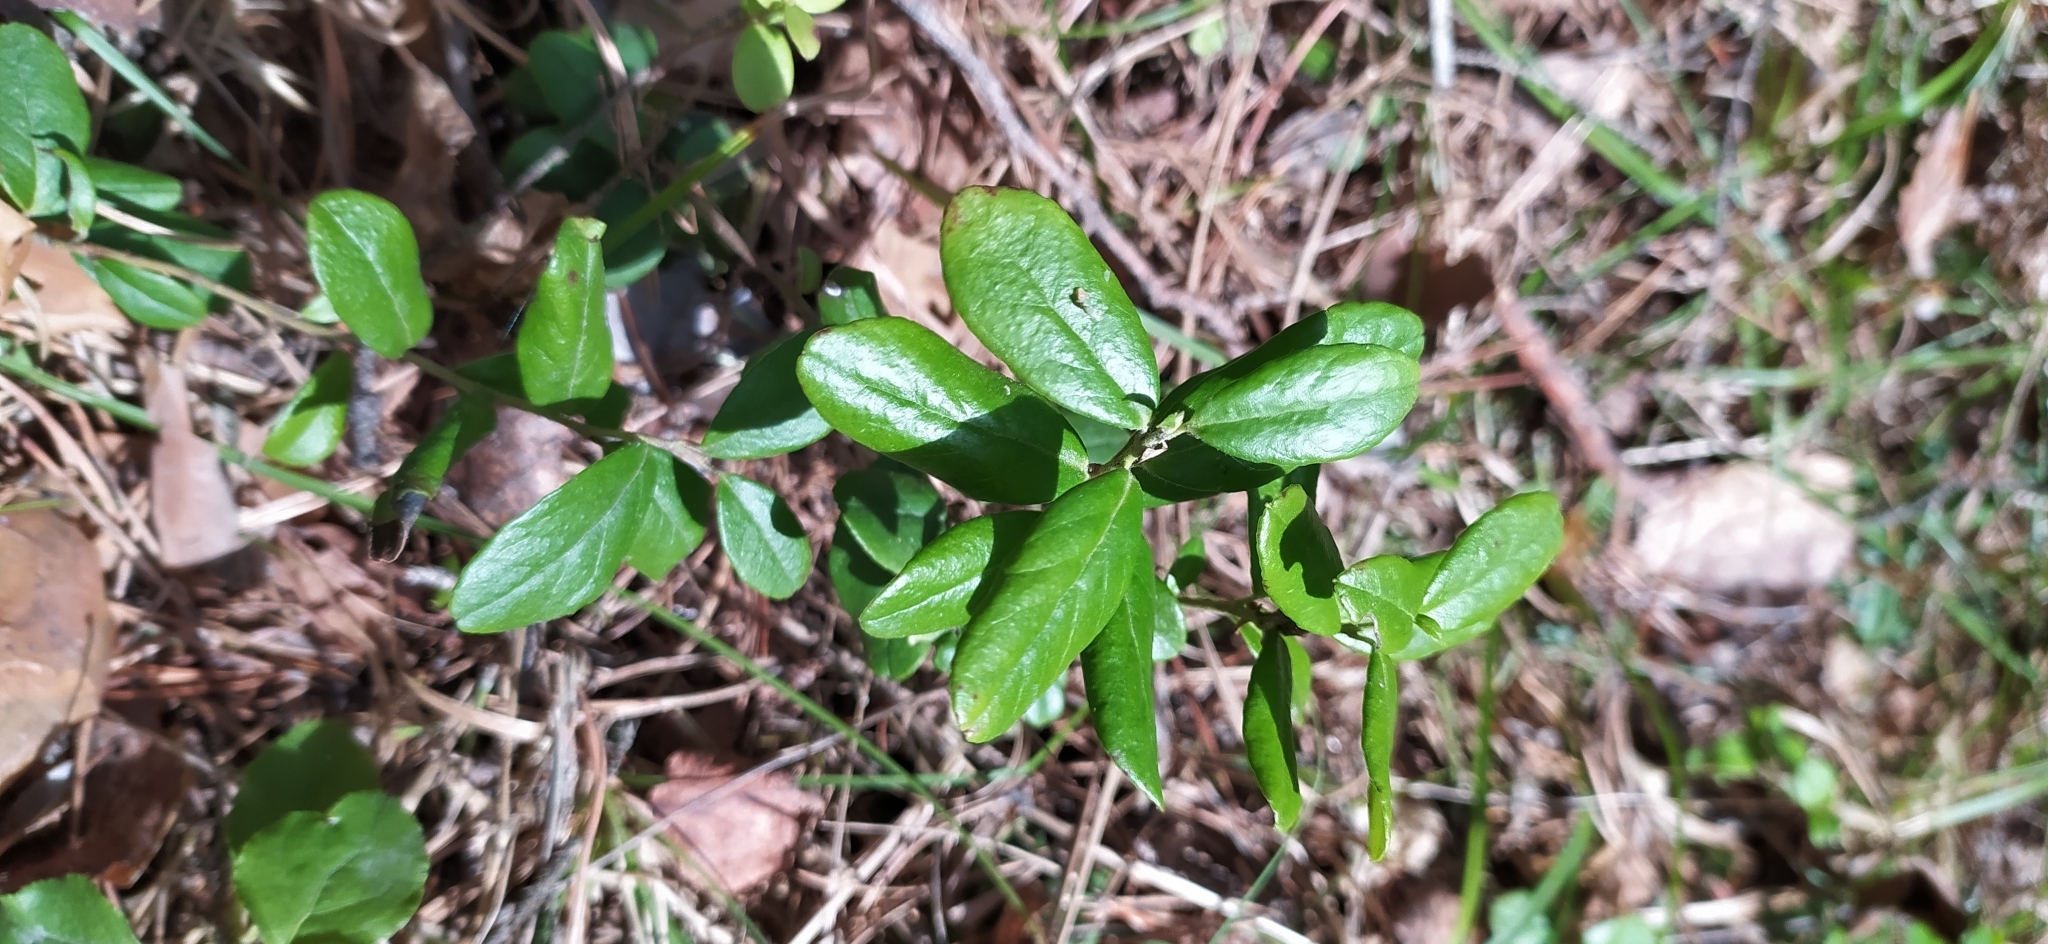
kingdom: Plantae
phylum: Tracheophyta
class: Magnoliopsida
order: Ericales
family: Ericaceae
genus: Vaccinium
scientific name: Vaccinium vitis-idaea
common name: Cowberry
